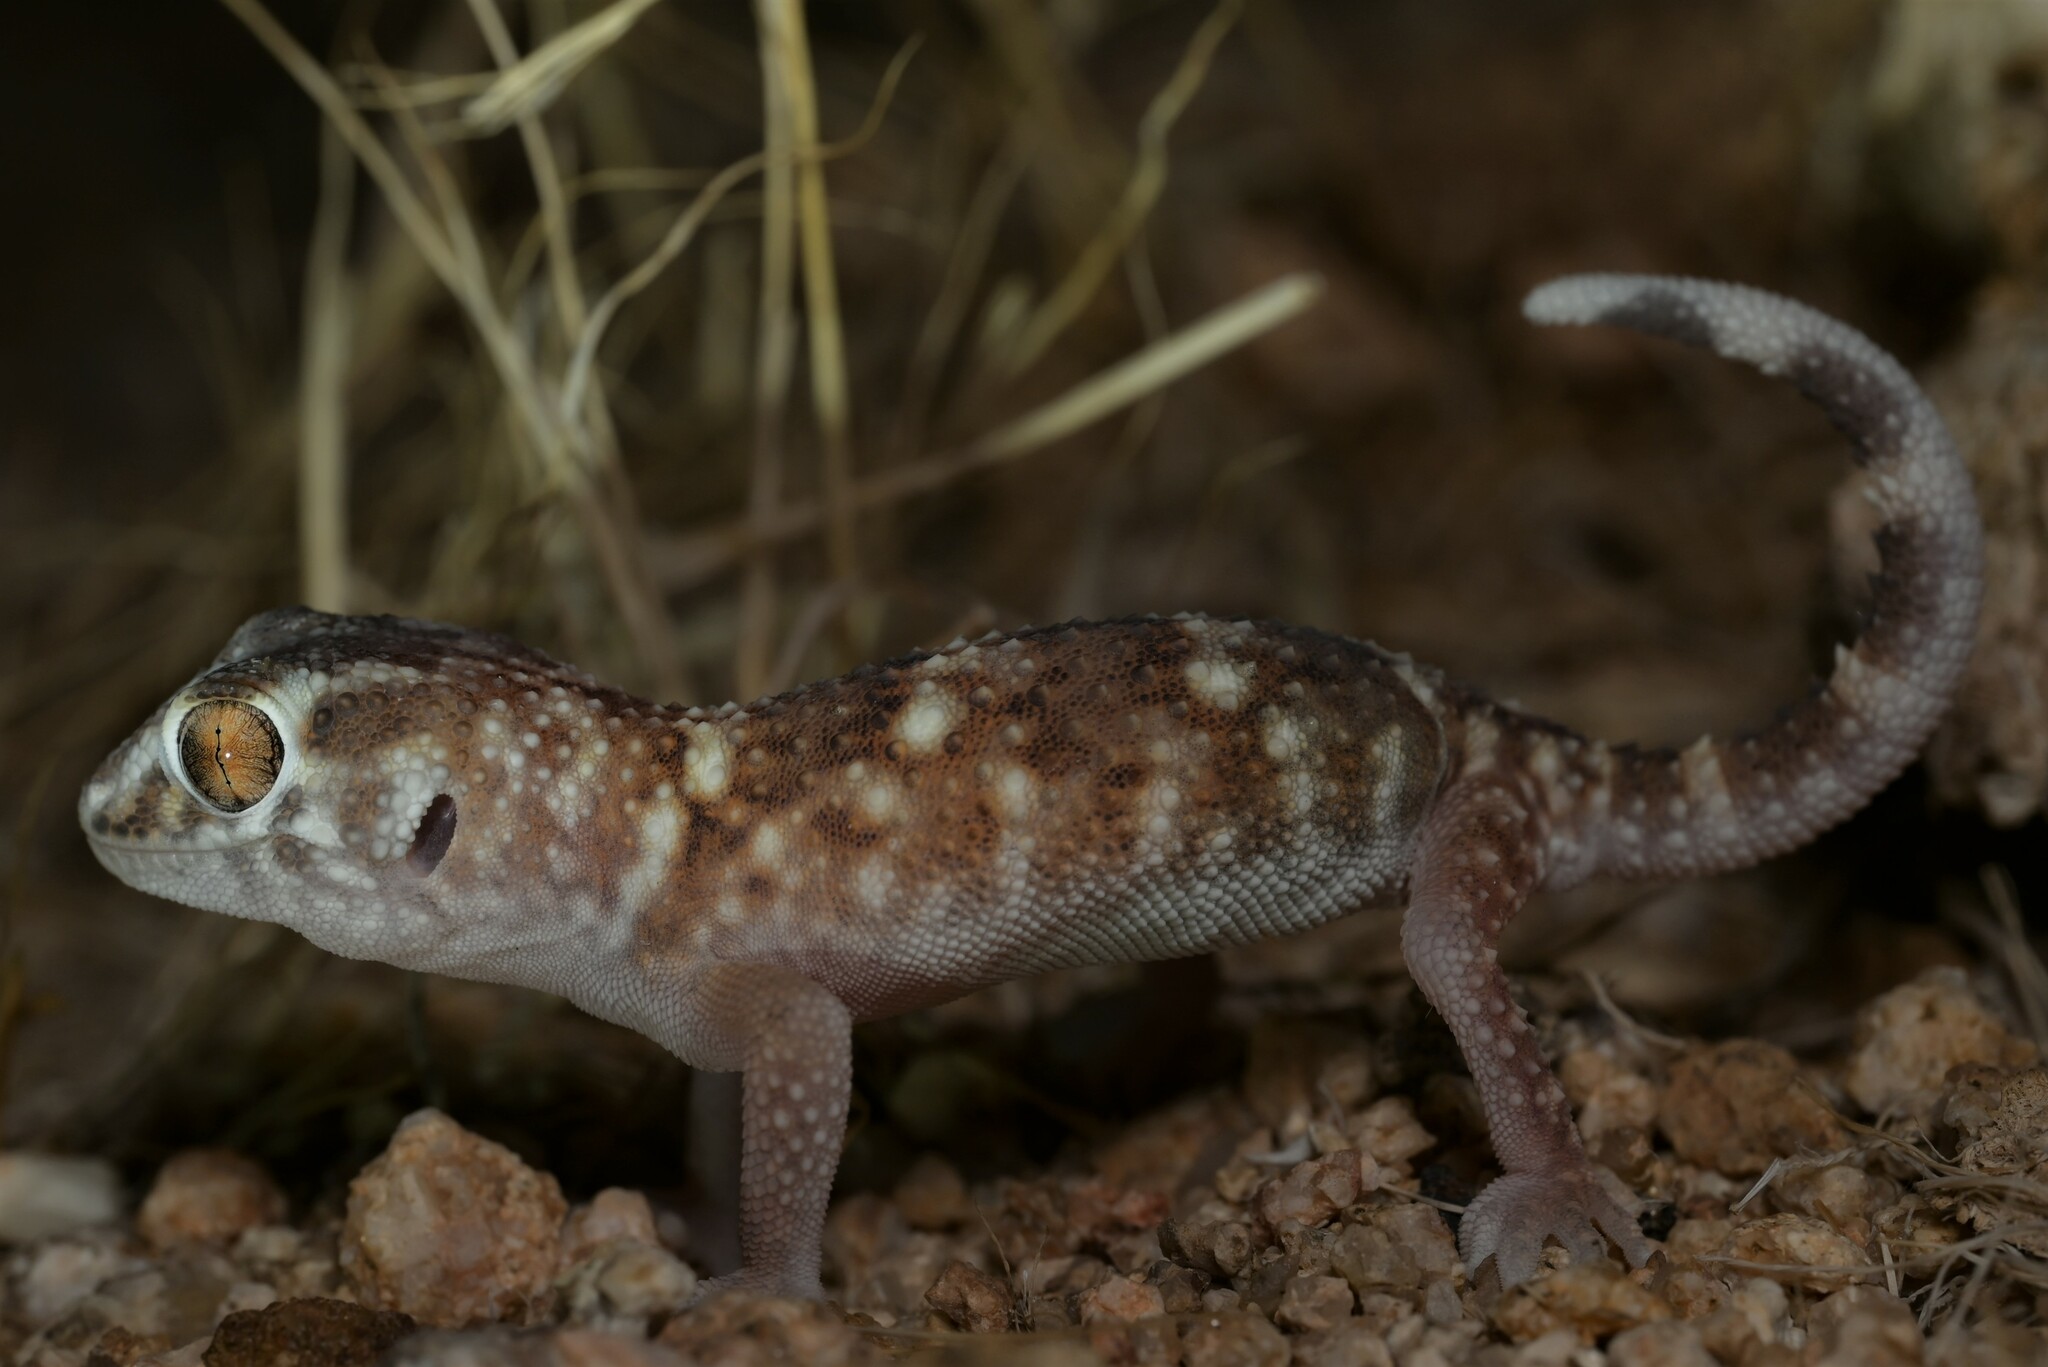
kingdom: Animalia
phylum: Chordata
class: Squamata
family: Gekkonidae
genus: Chondrodactylus
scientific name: Chondrodactylus angulifer
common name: Common giant ground gecko
